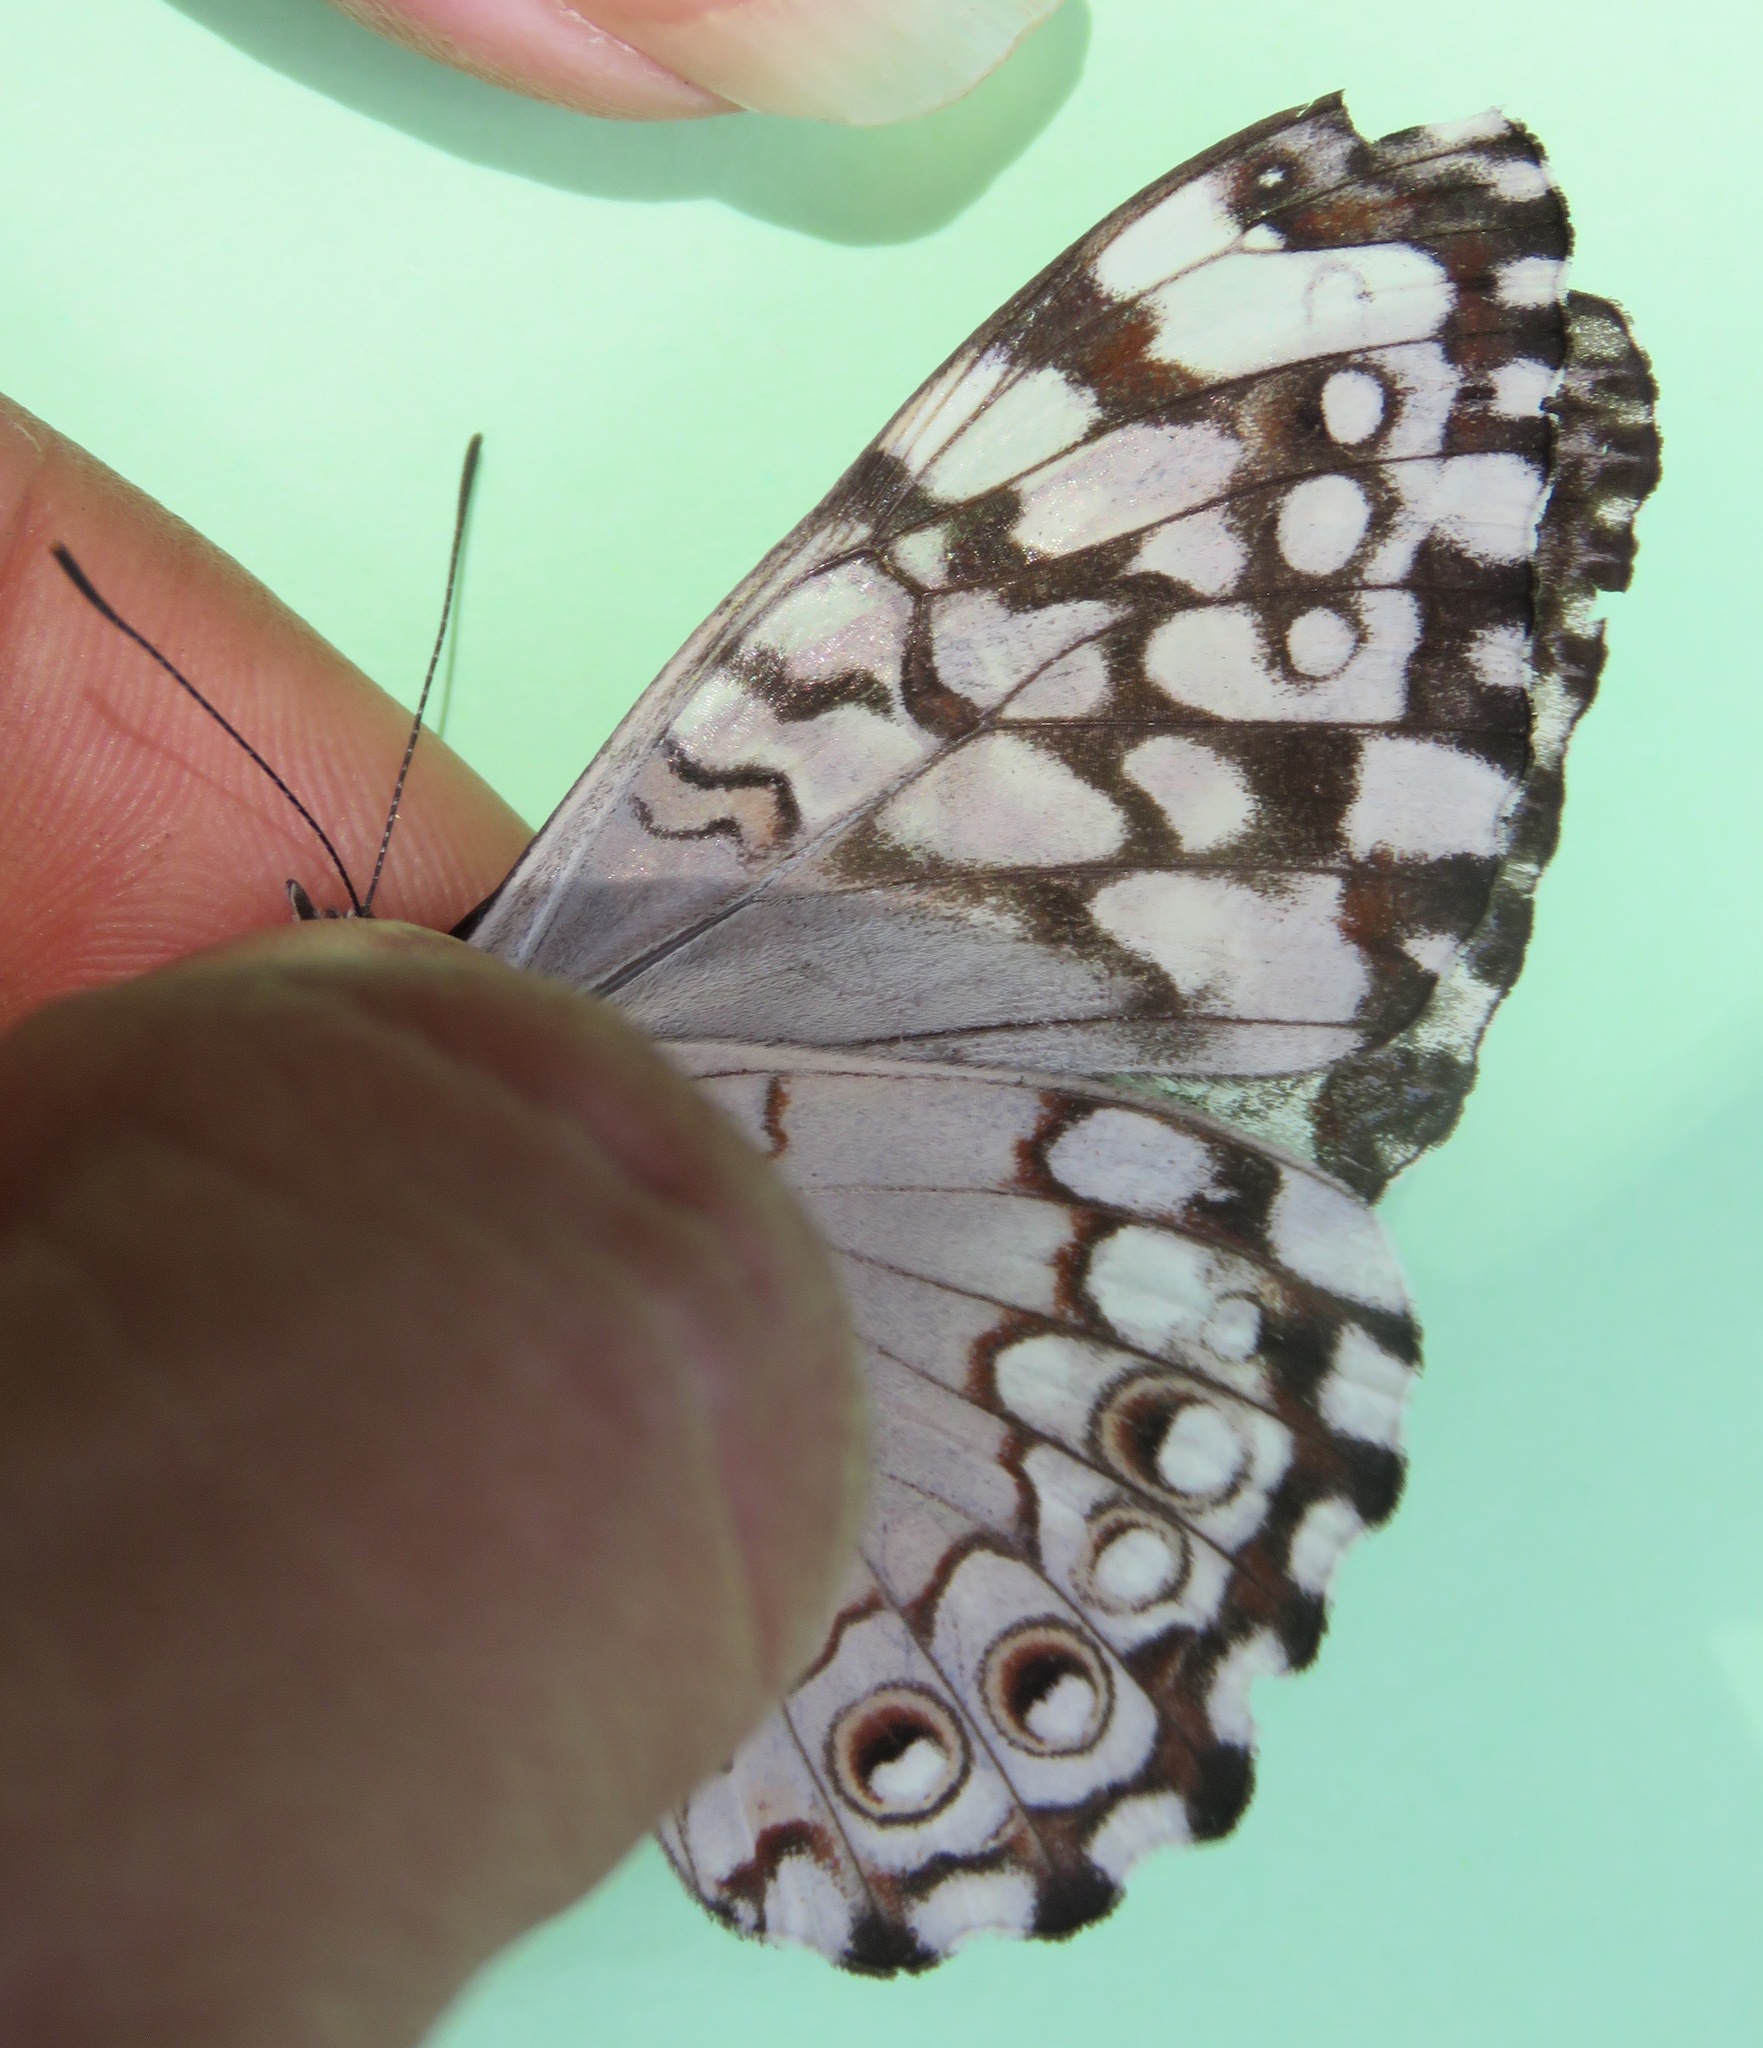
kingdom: Animalia
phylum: Arthropoda
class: Insecta
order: Lepidoptera
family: Nymphalidae
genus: Hamadryas
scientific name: Hamadryas februa
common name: Gray cracker
